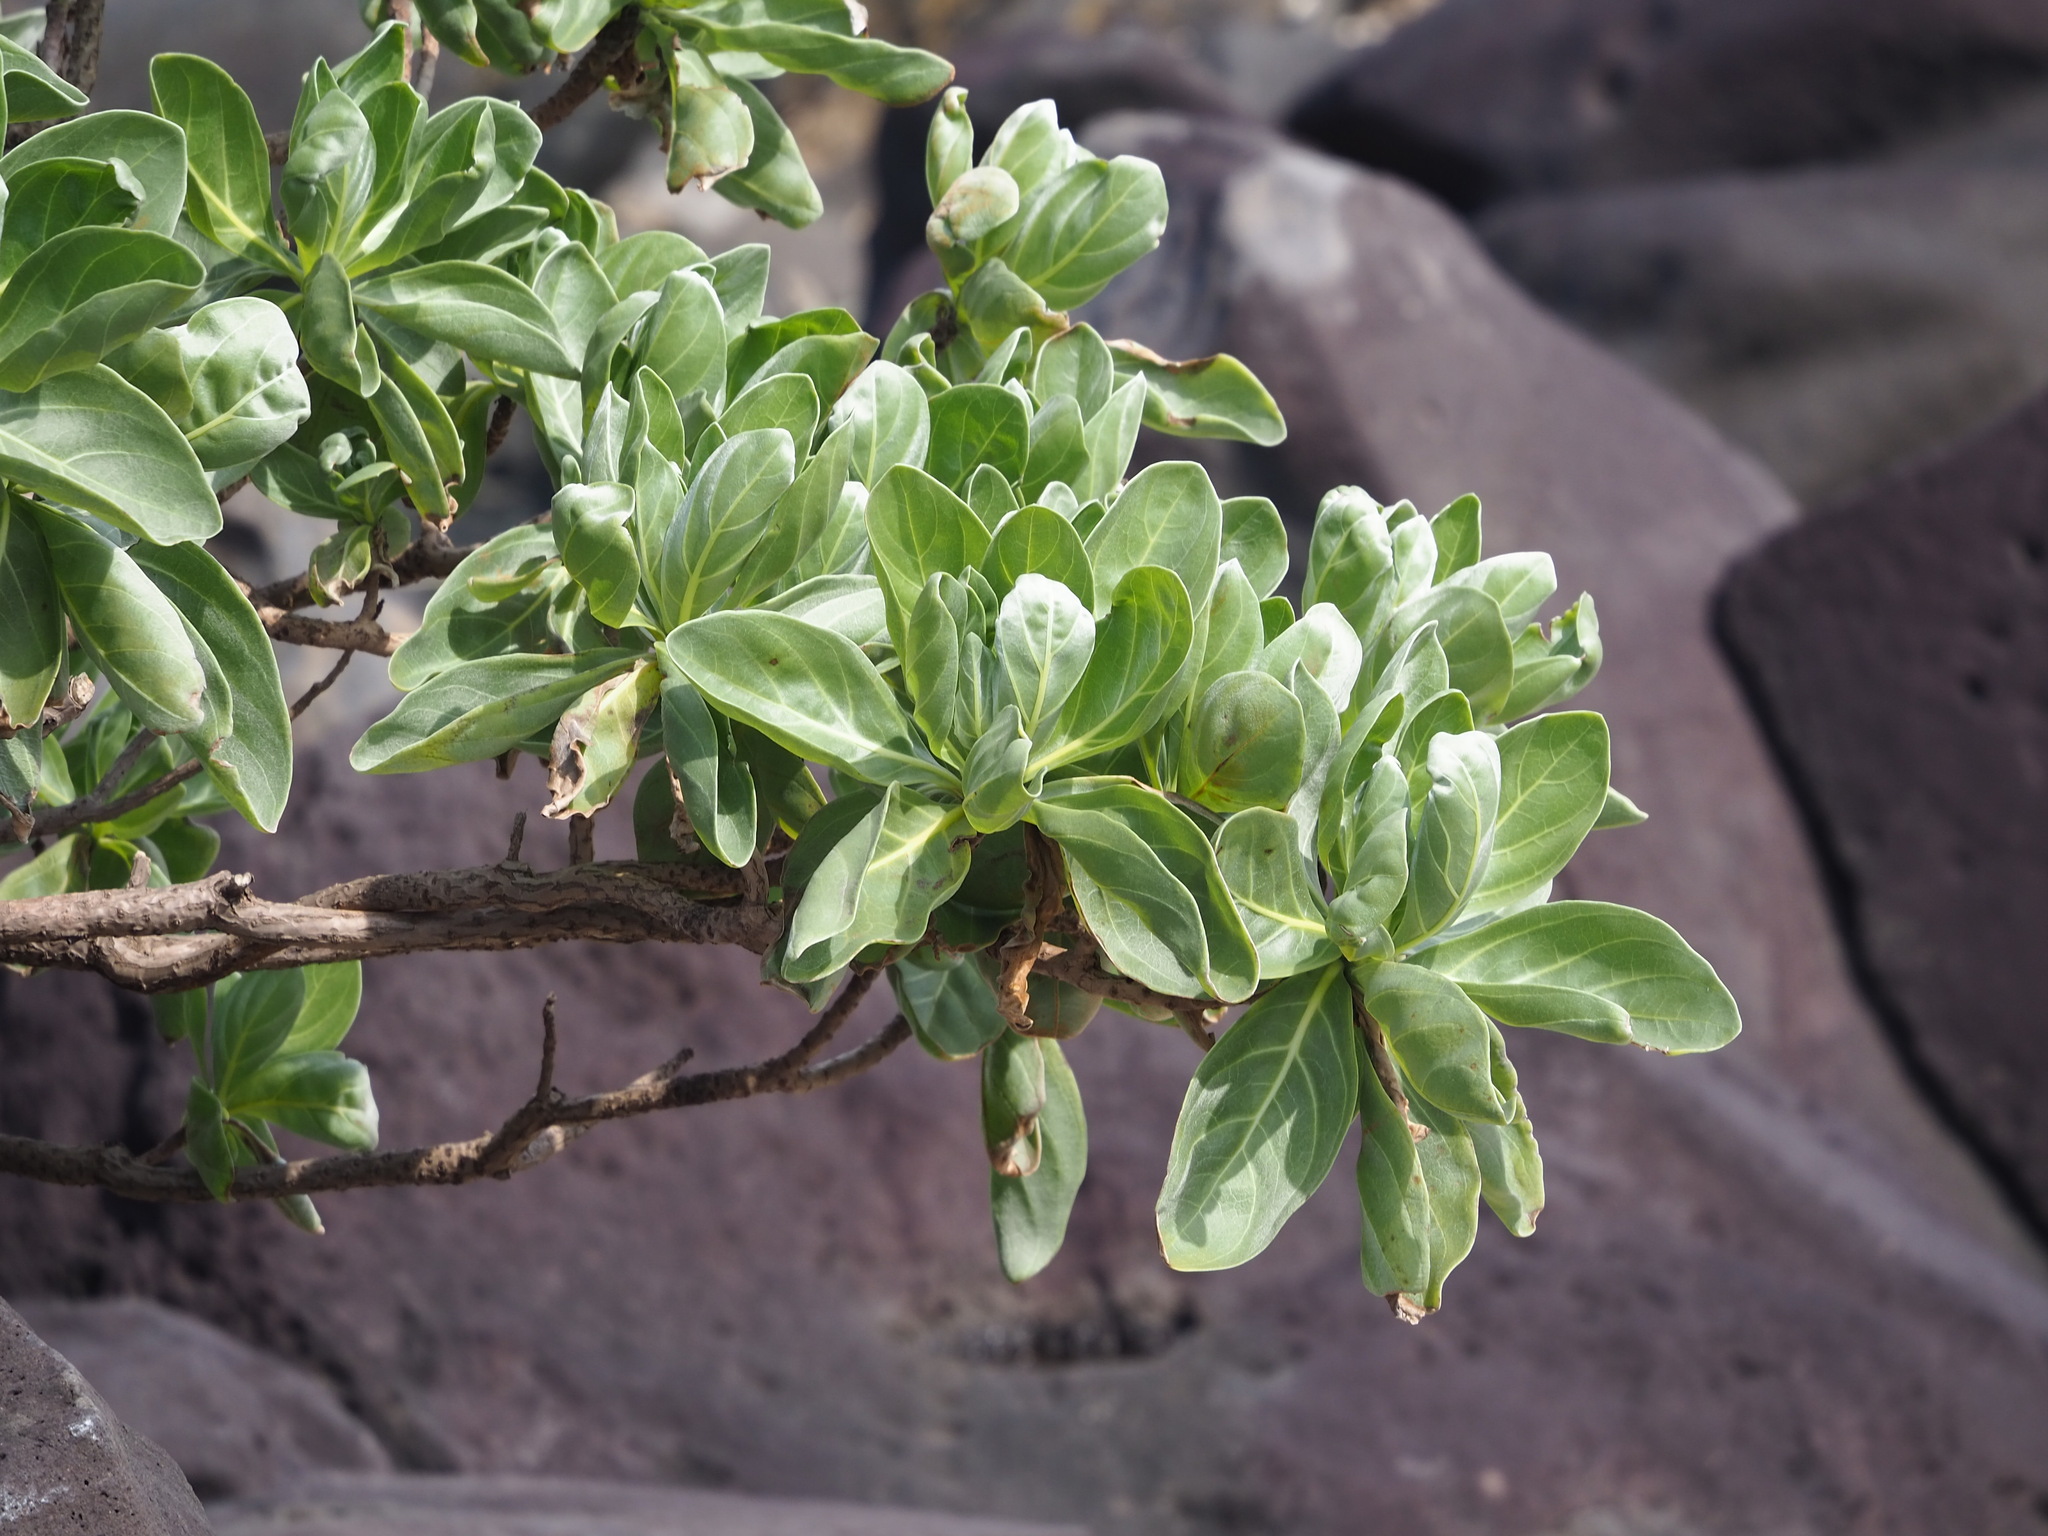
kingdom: Plantae
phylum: Tracheophyta
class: Magnoliopsida
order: Boraginales
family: Heliotropiaceae
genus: Heliotropium
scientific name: Heliotropium velutinum
